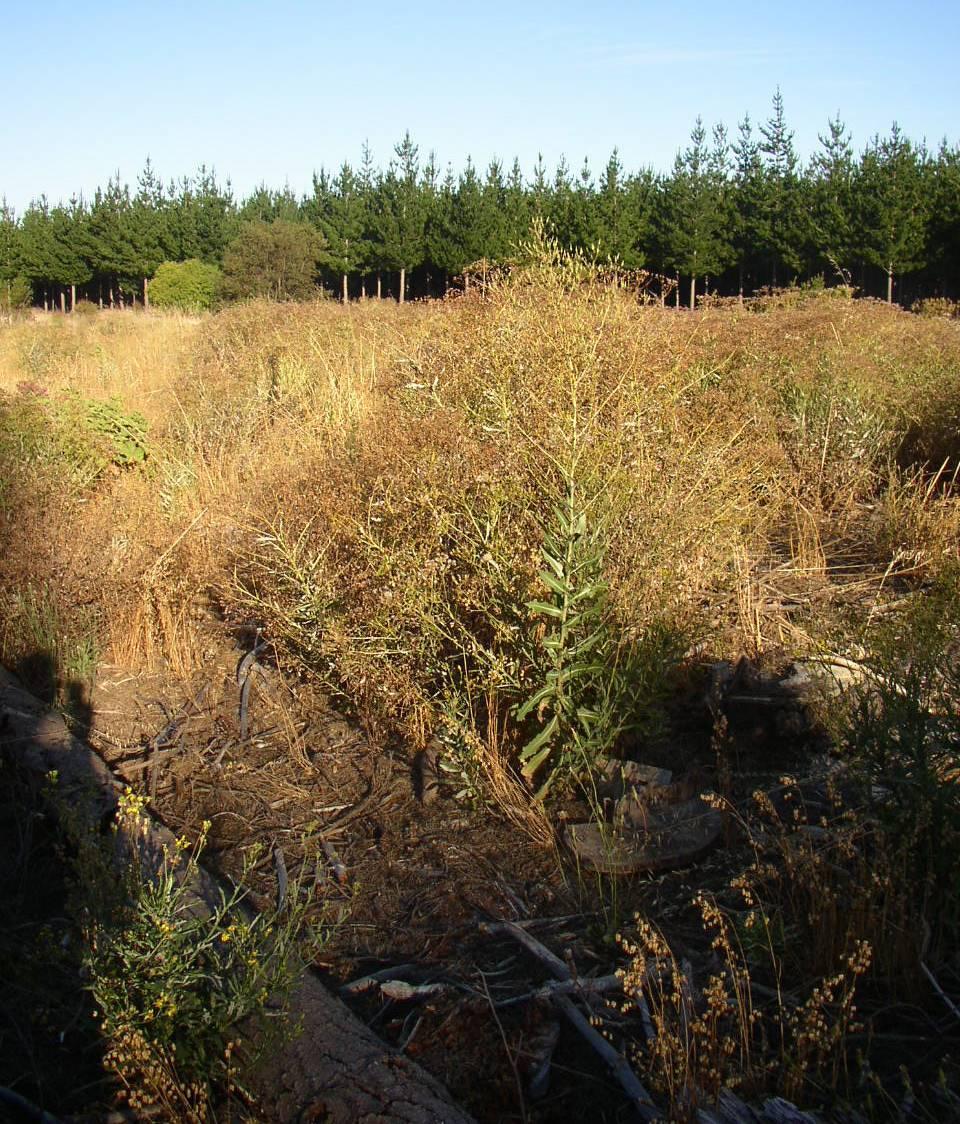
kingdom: Plantae
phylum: Tracheophyta
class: Magnoliopsida
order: Asterales
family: Asteraceae
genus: Lactuca
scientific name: Lactuca serriola
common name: Prickly lettuce
